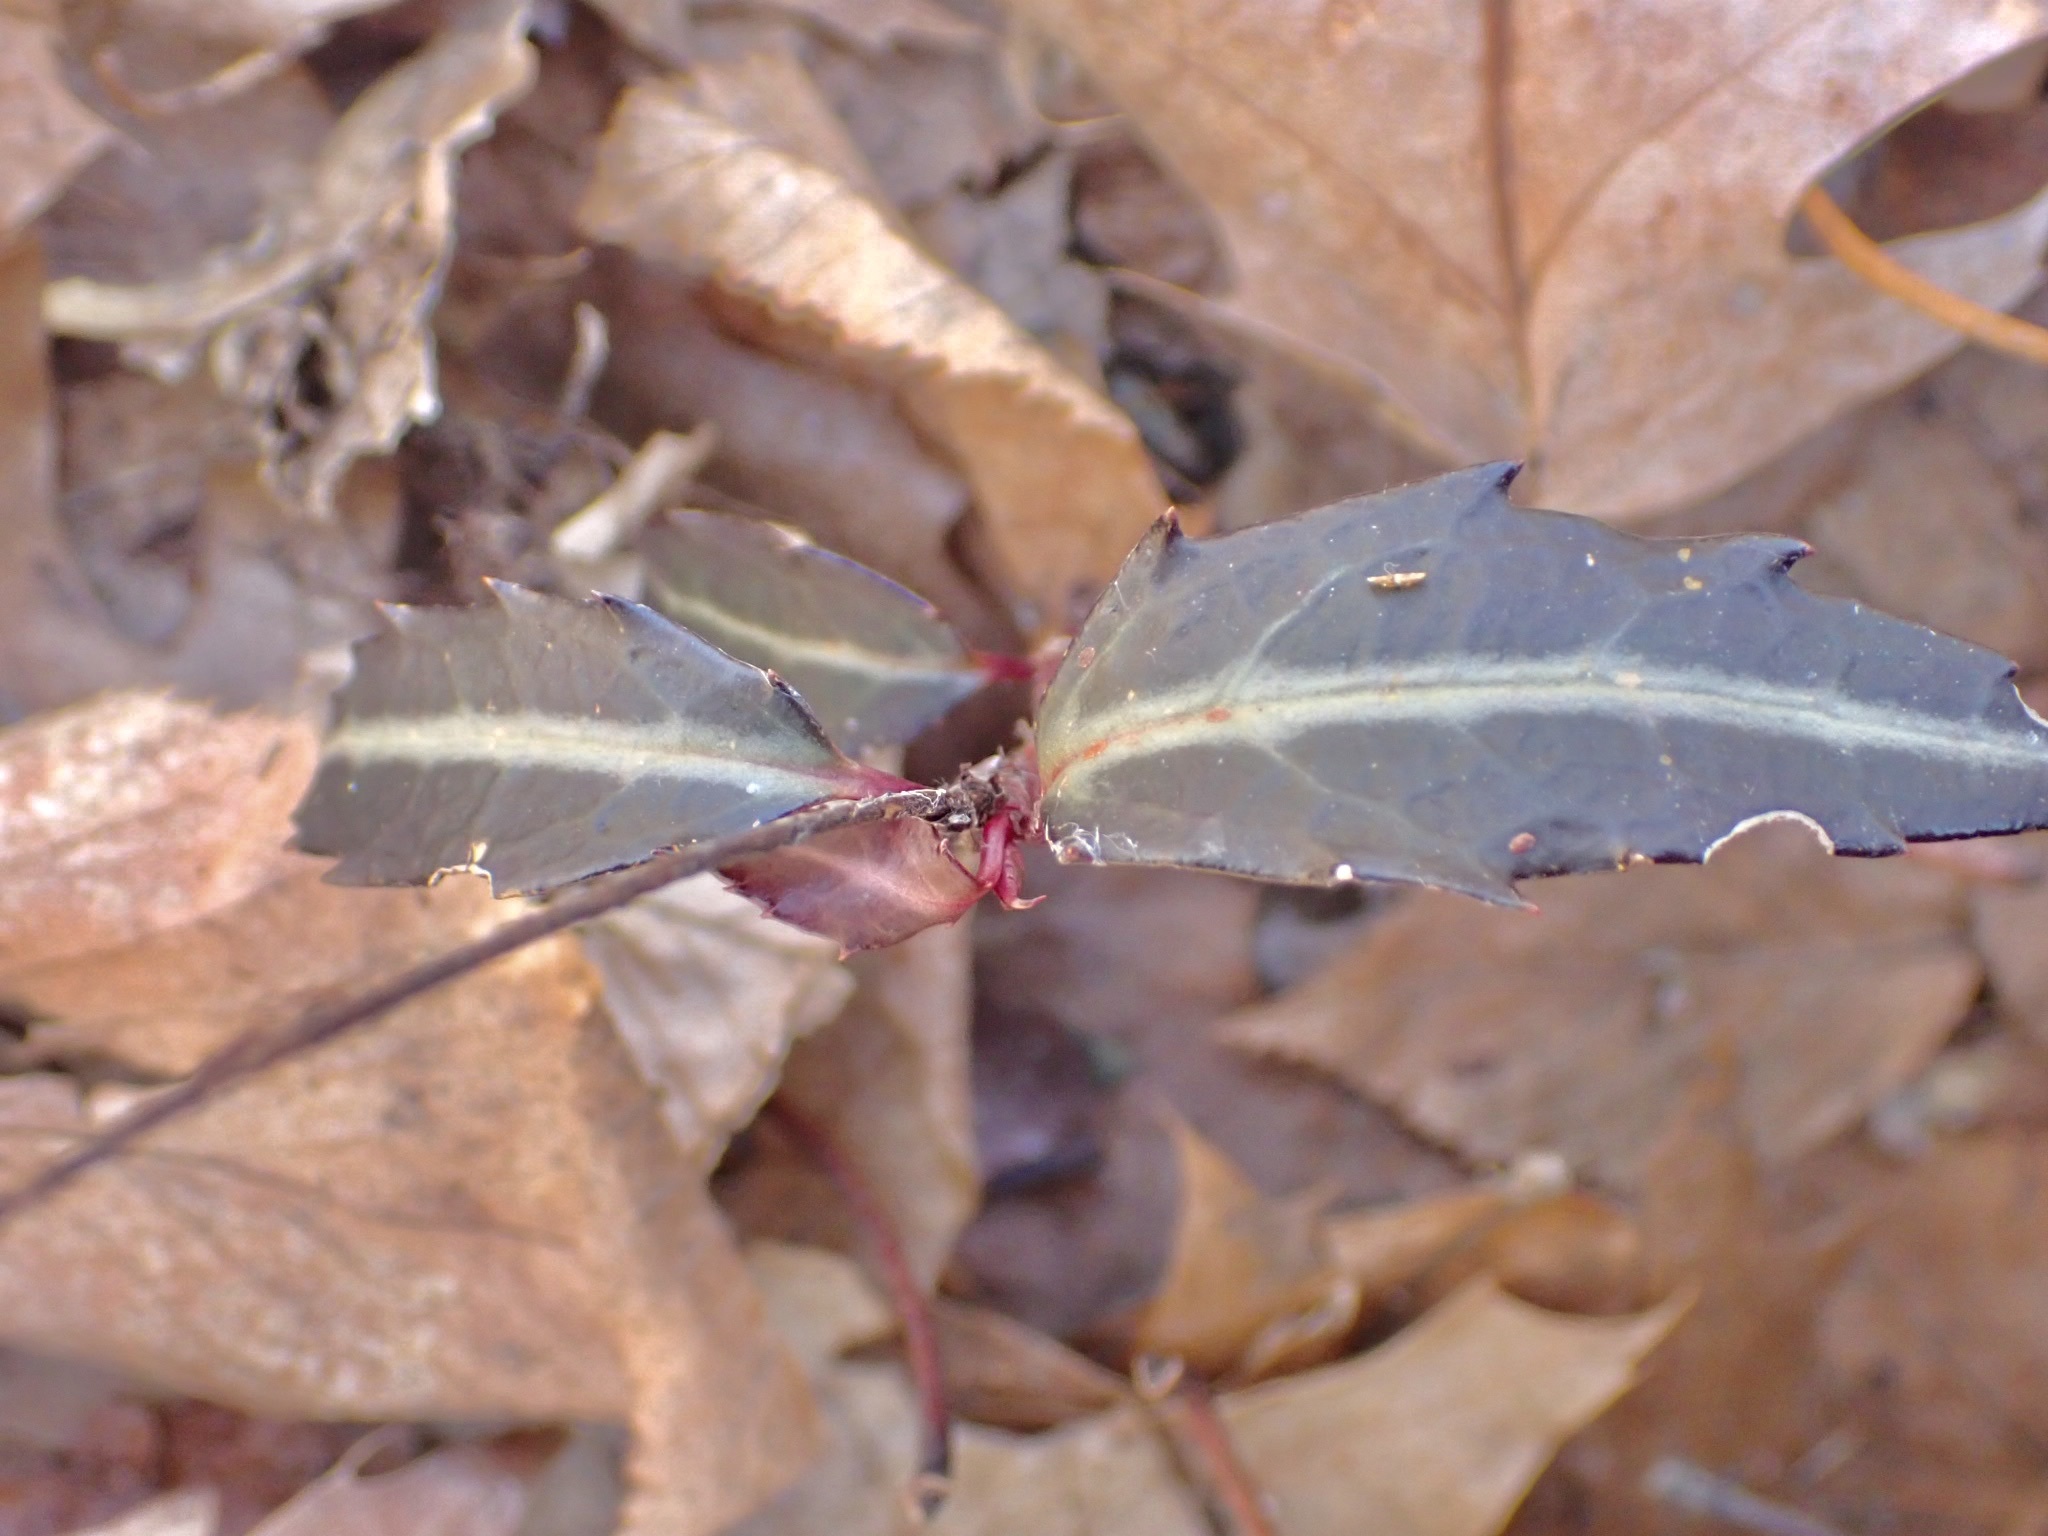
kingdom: Plantae
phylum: Tracheophyta
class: Magnoliopsida
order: Ericales
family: Ericaceae
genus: Chimaphila
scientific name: Chimaphila maculata
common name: Spotted pipsissewa
